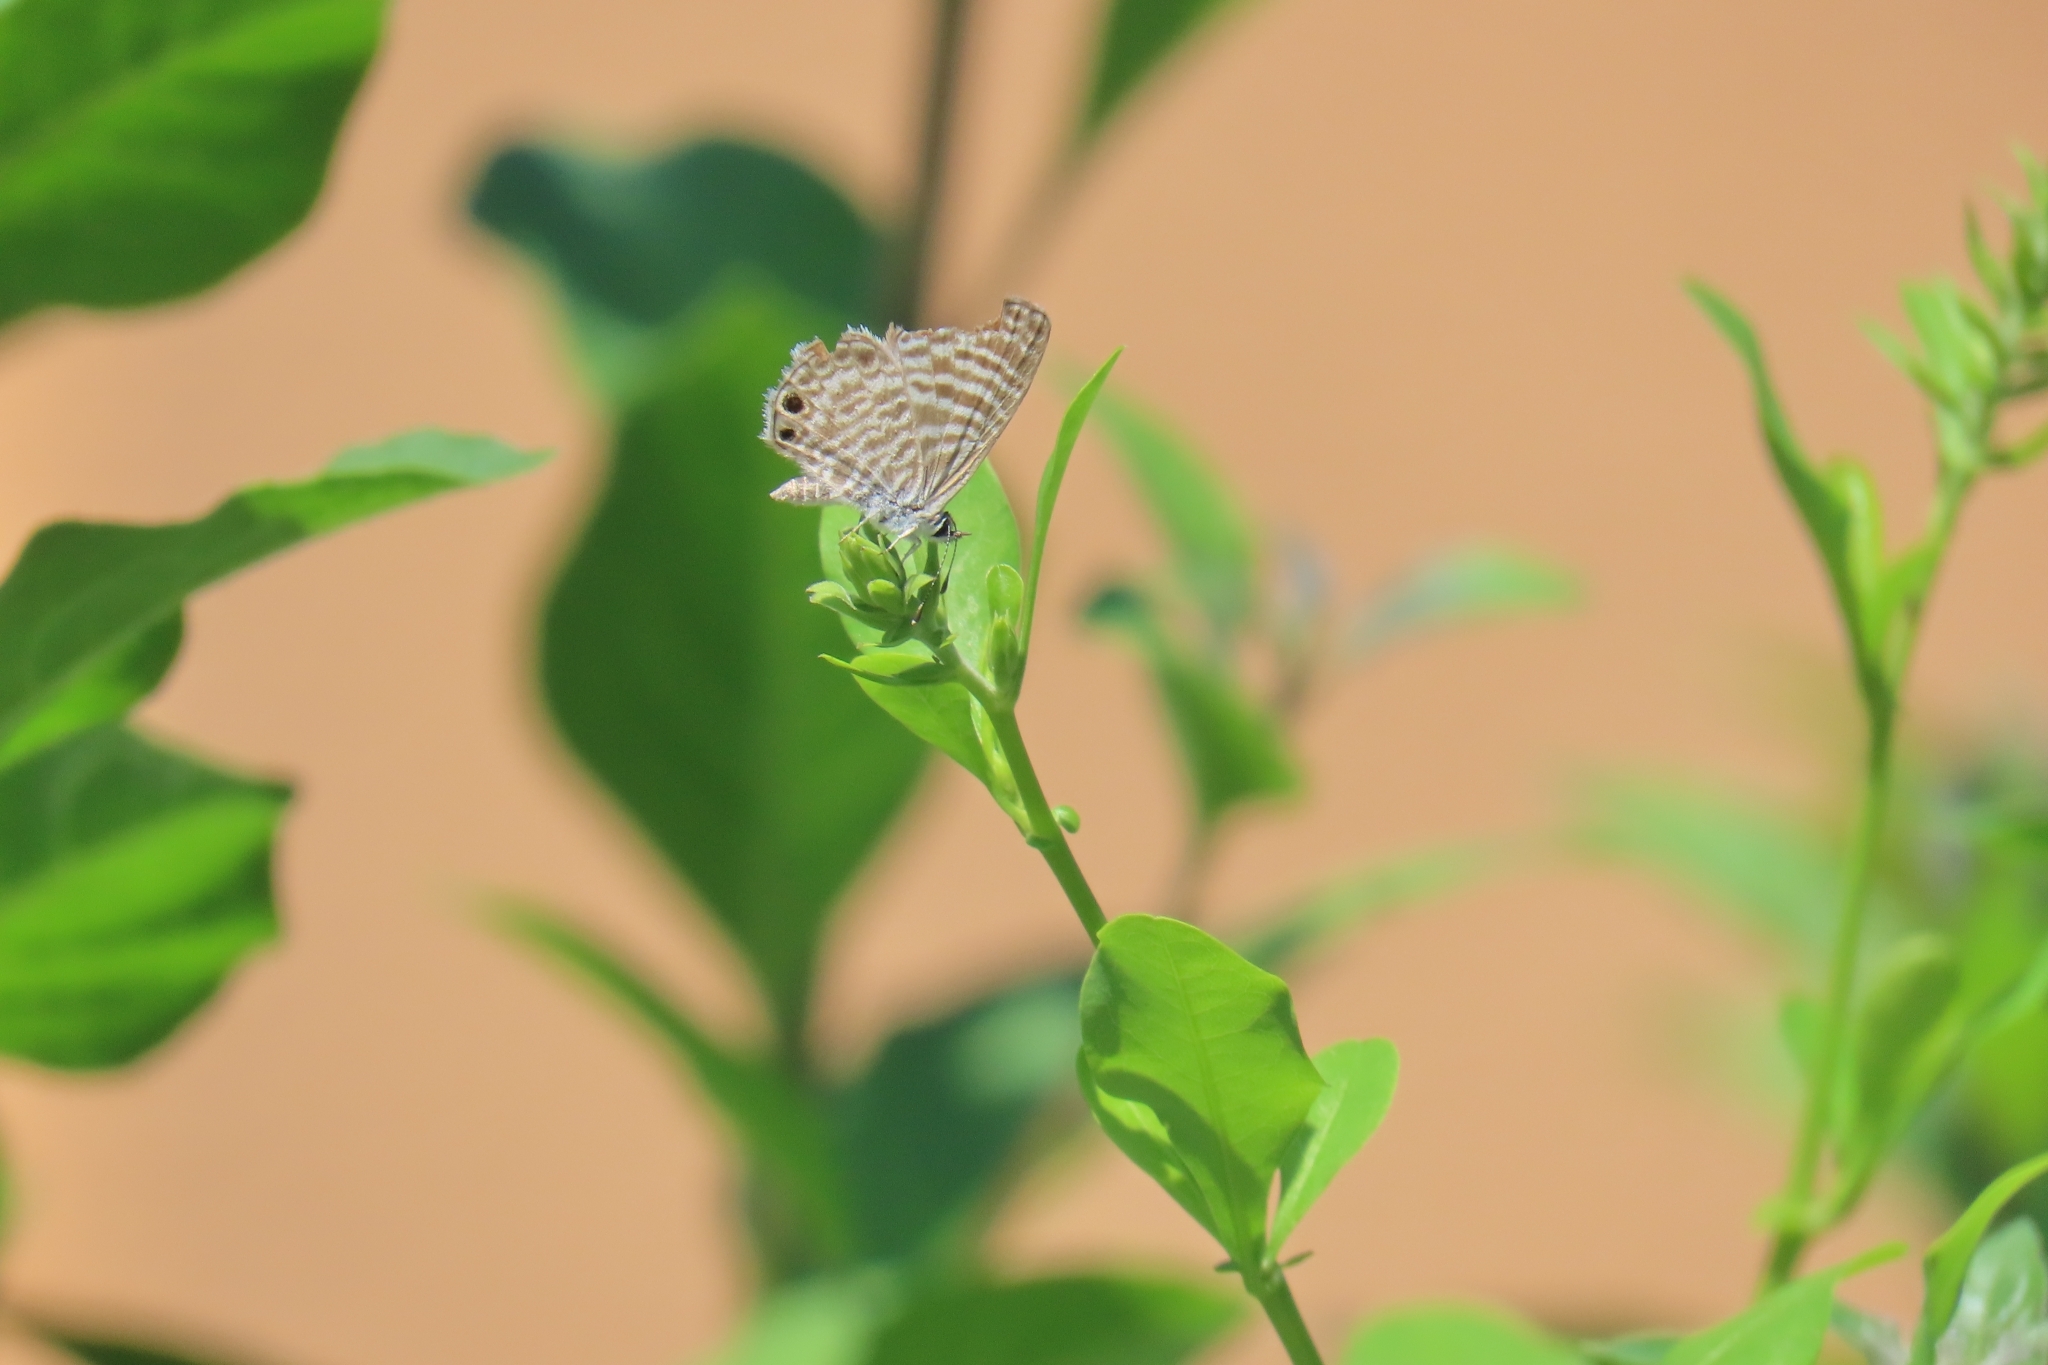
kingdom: Animalia
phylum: Arthropoda
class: Insecta
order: Lepidoptera
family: Lycaenidae
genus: Leptotes
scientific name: Leptotes marina
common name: Marine blue
